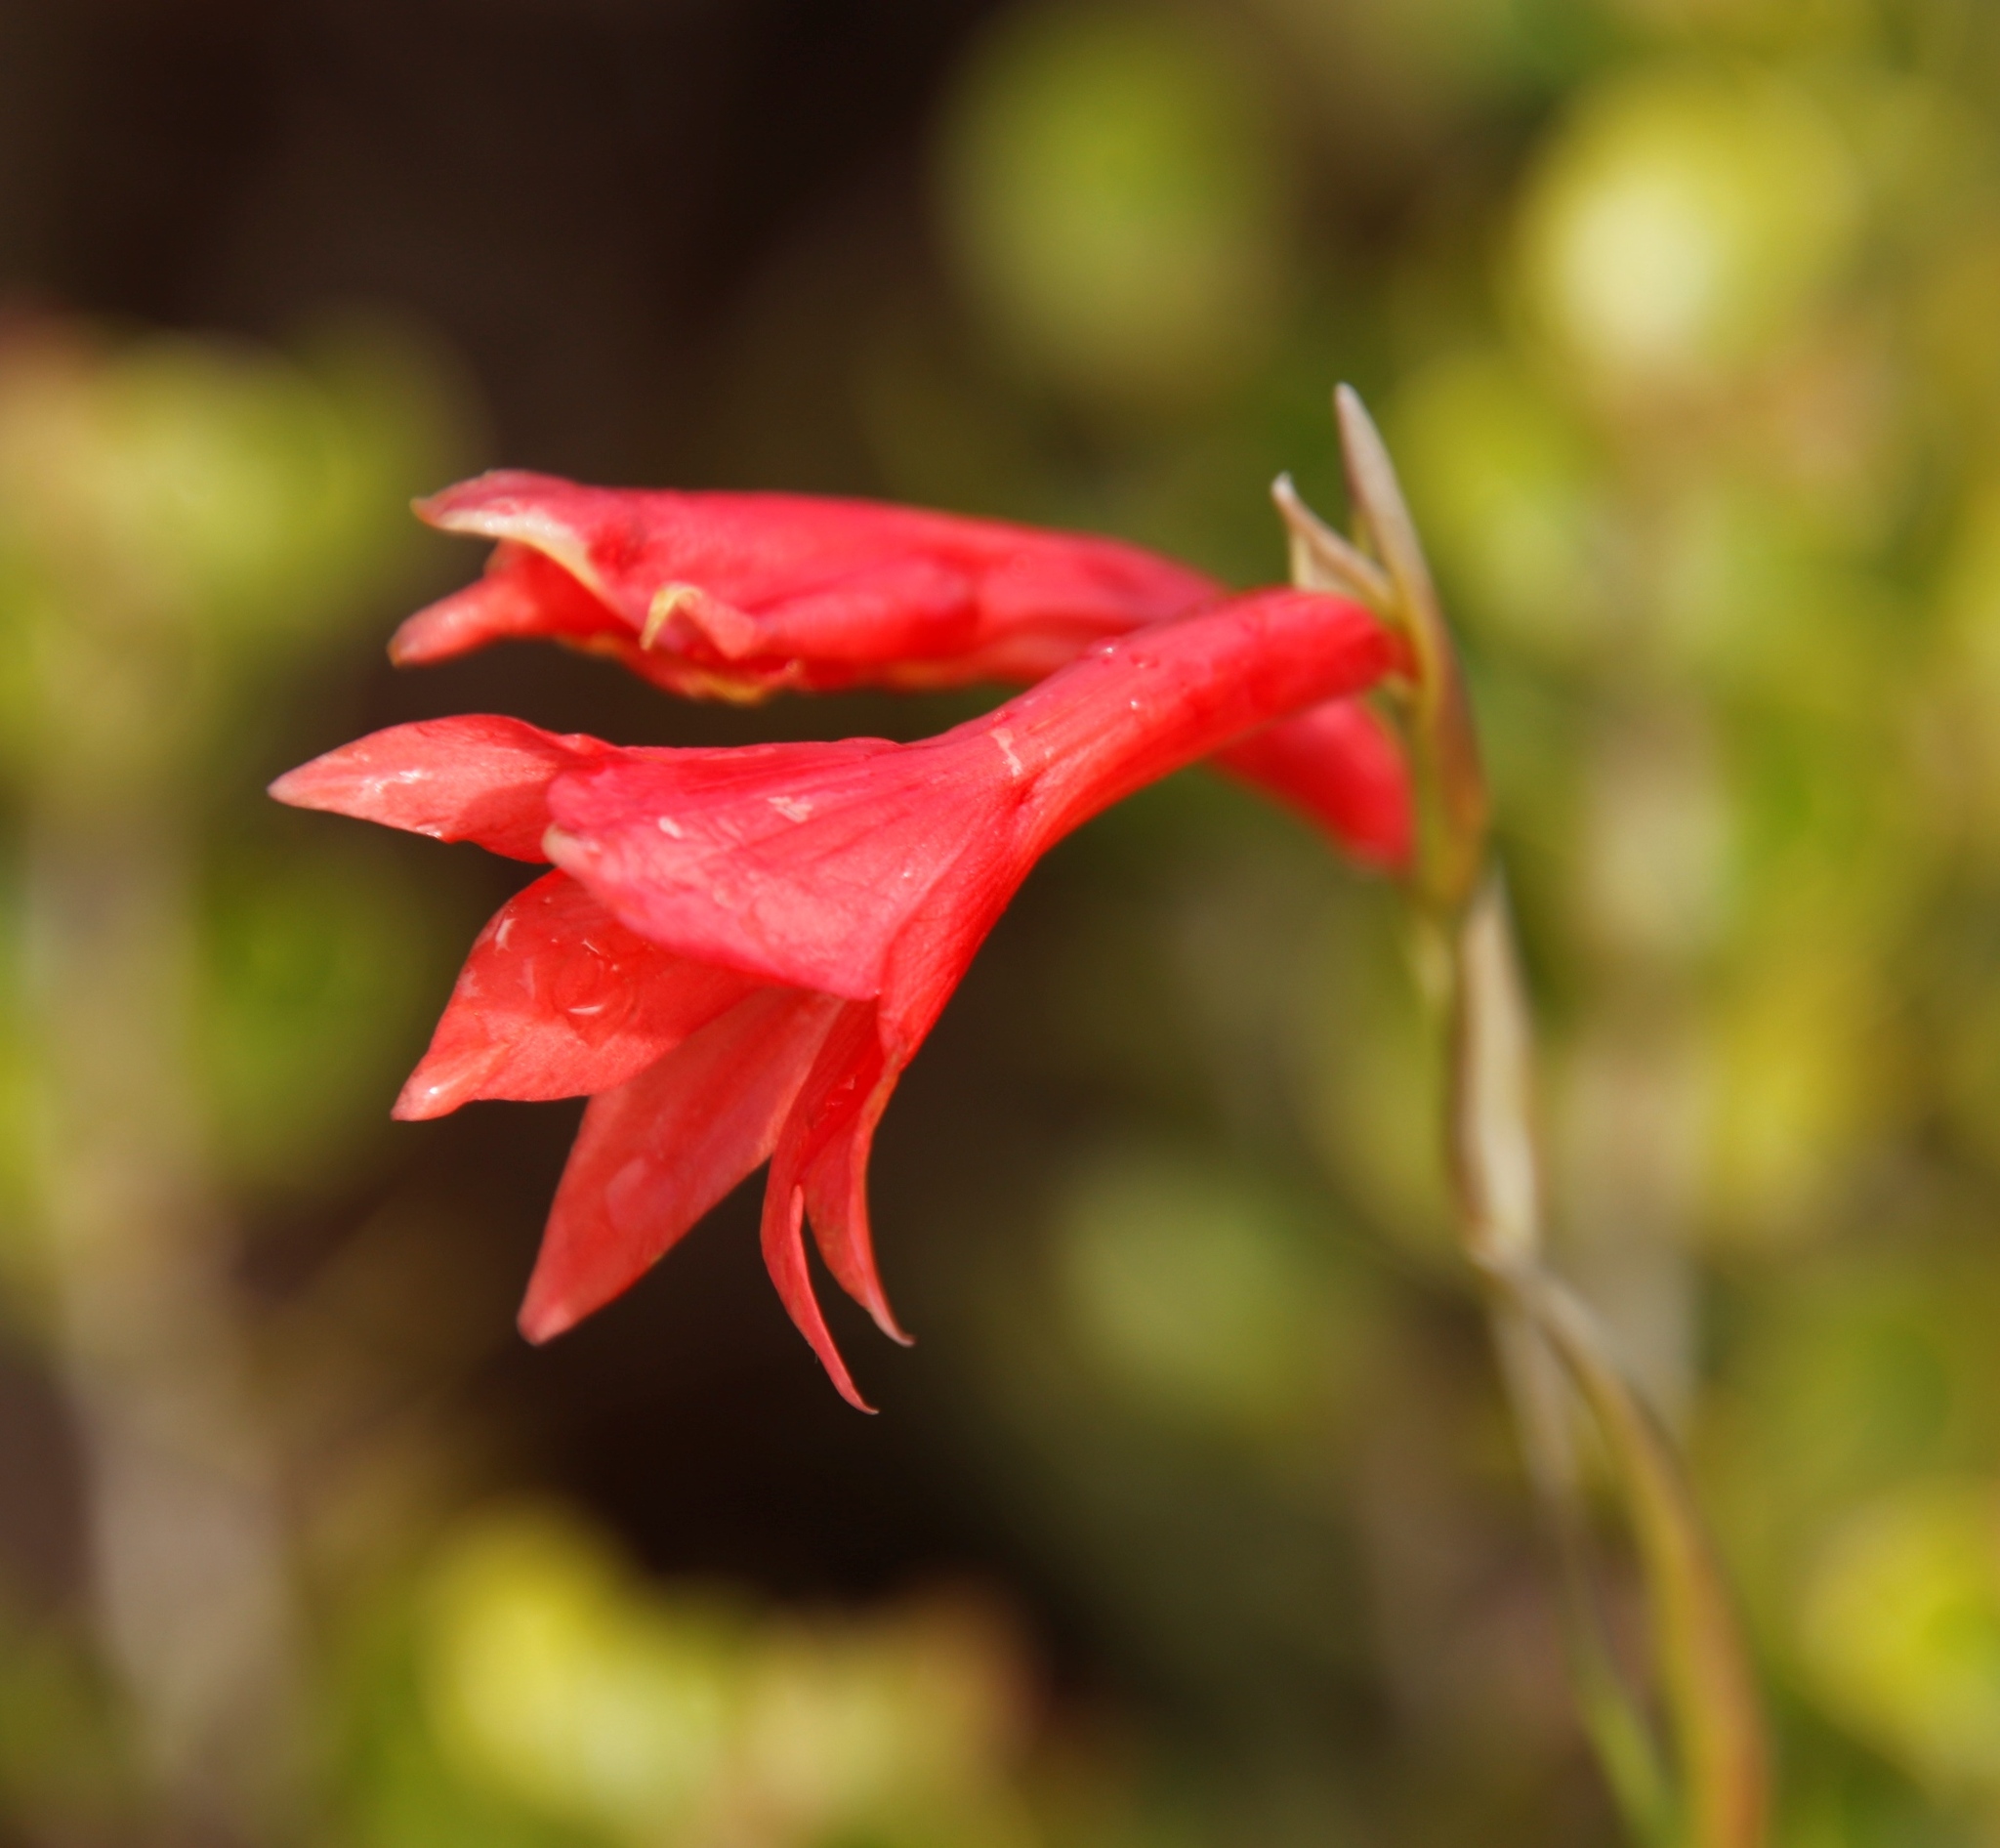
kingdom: Plantae
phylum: Tracheophyta
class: Liliopsida
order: Asparagales
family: Iridaceae
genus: Gladiolus
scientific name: Gladiolus priorii
